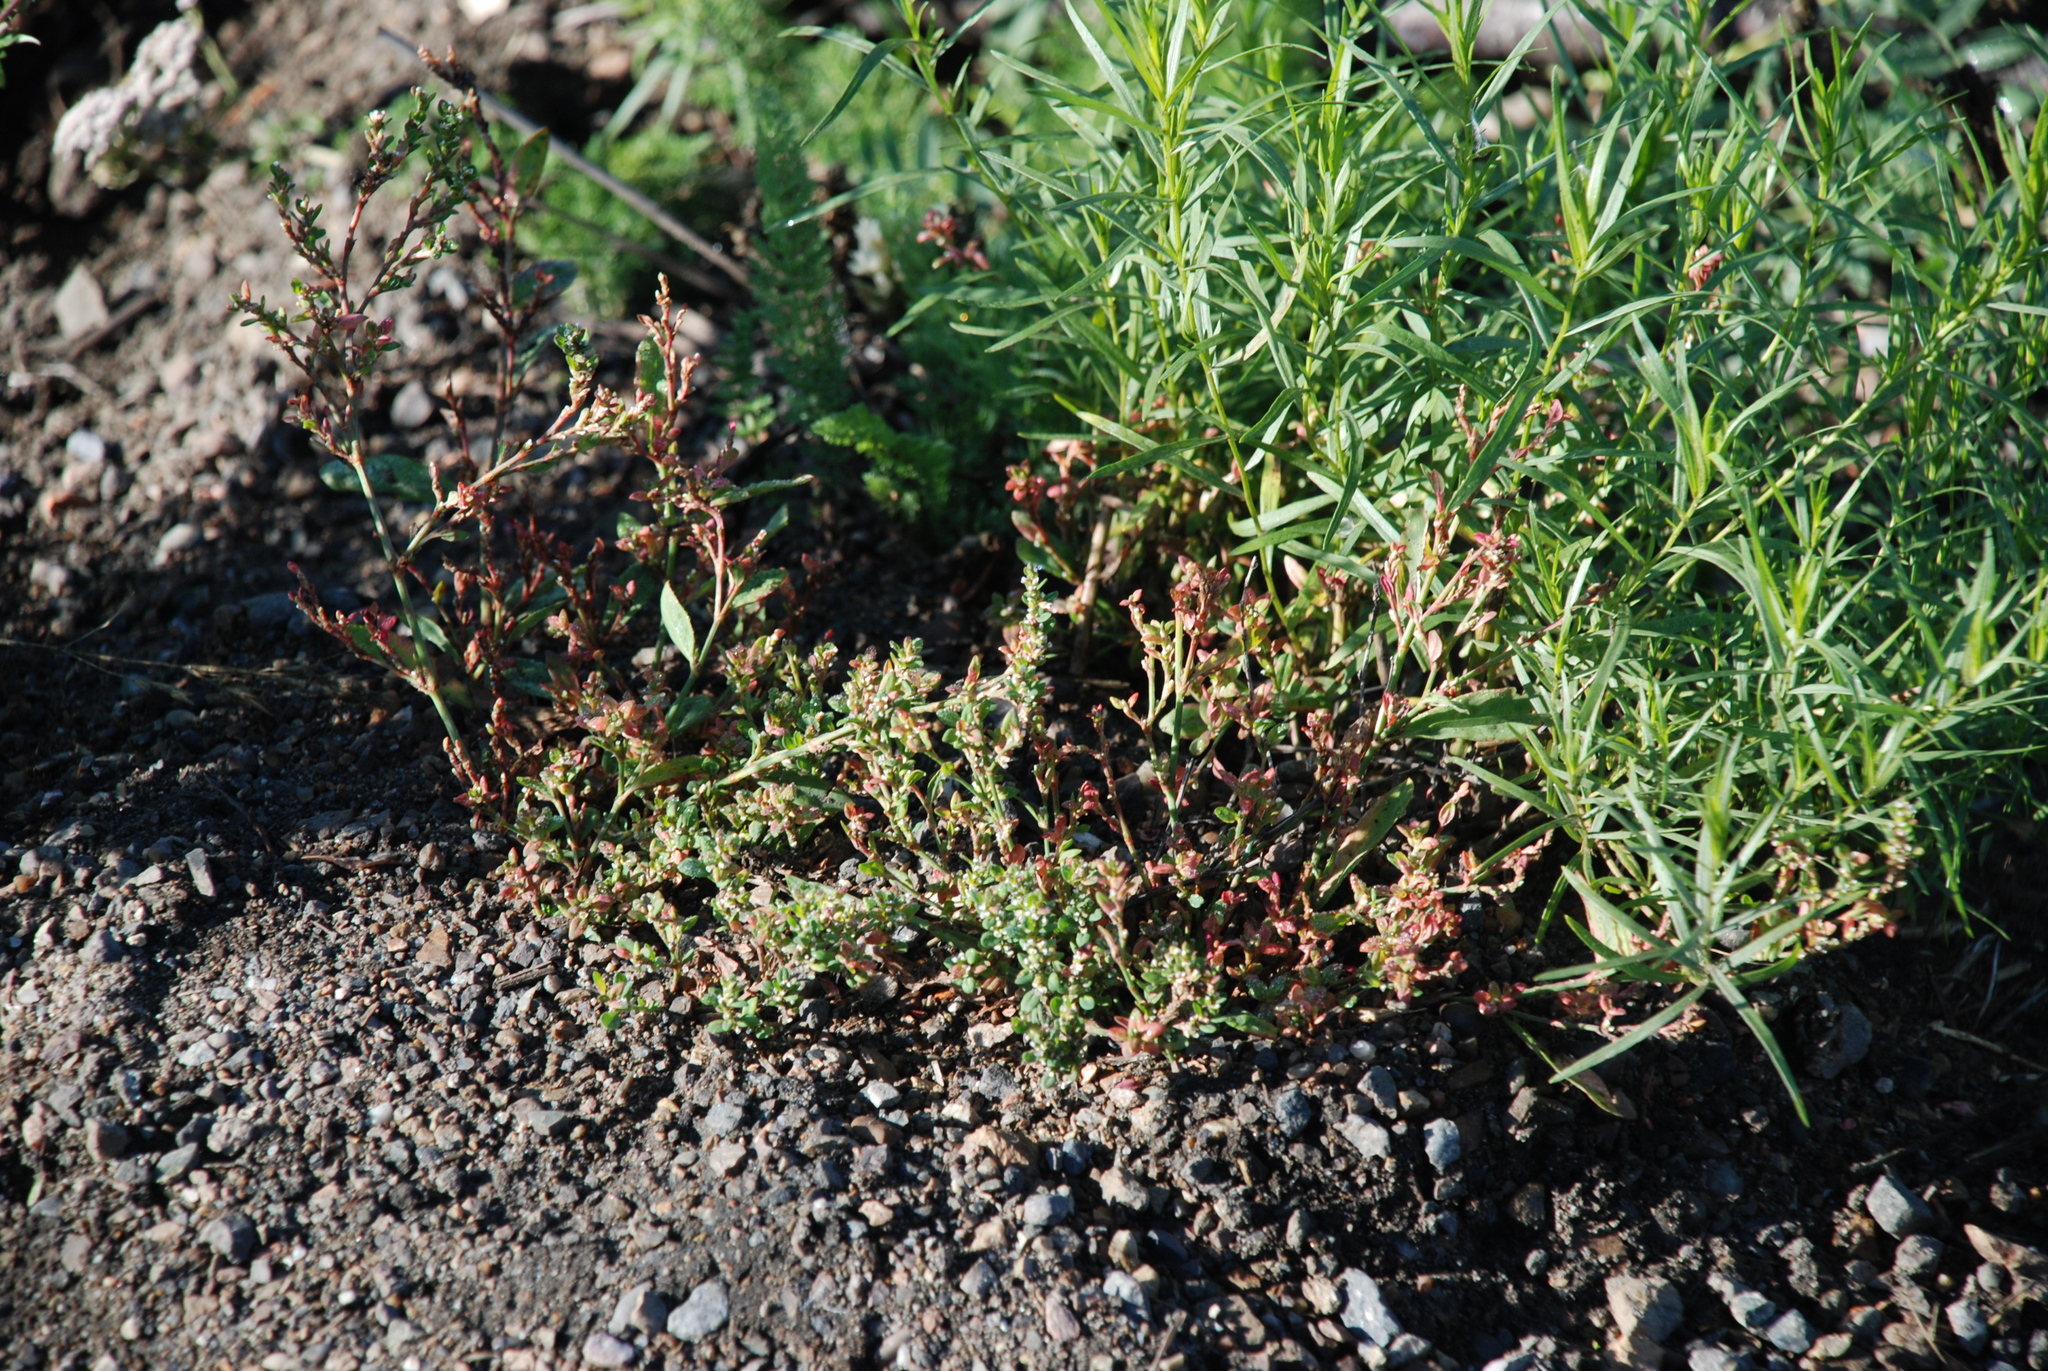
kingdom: Plantae
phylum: Tracheophyta
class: Magnoliopsida
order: Caryophyllales
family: Polygonaceae
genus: Polygonum
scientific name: Polygonum
